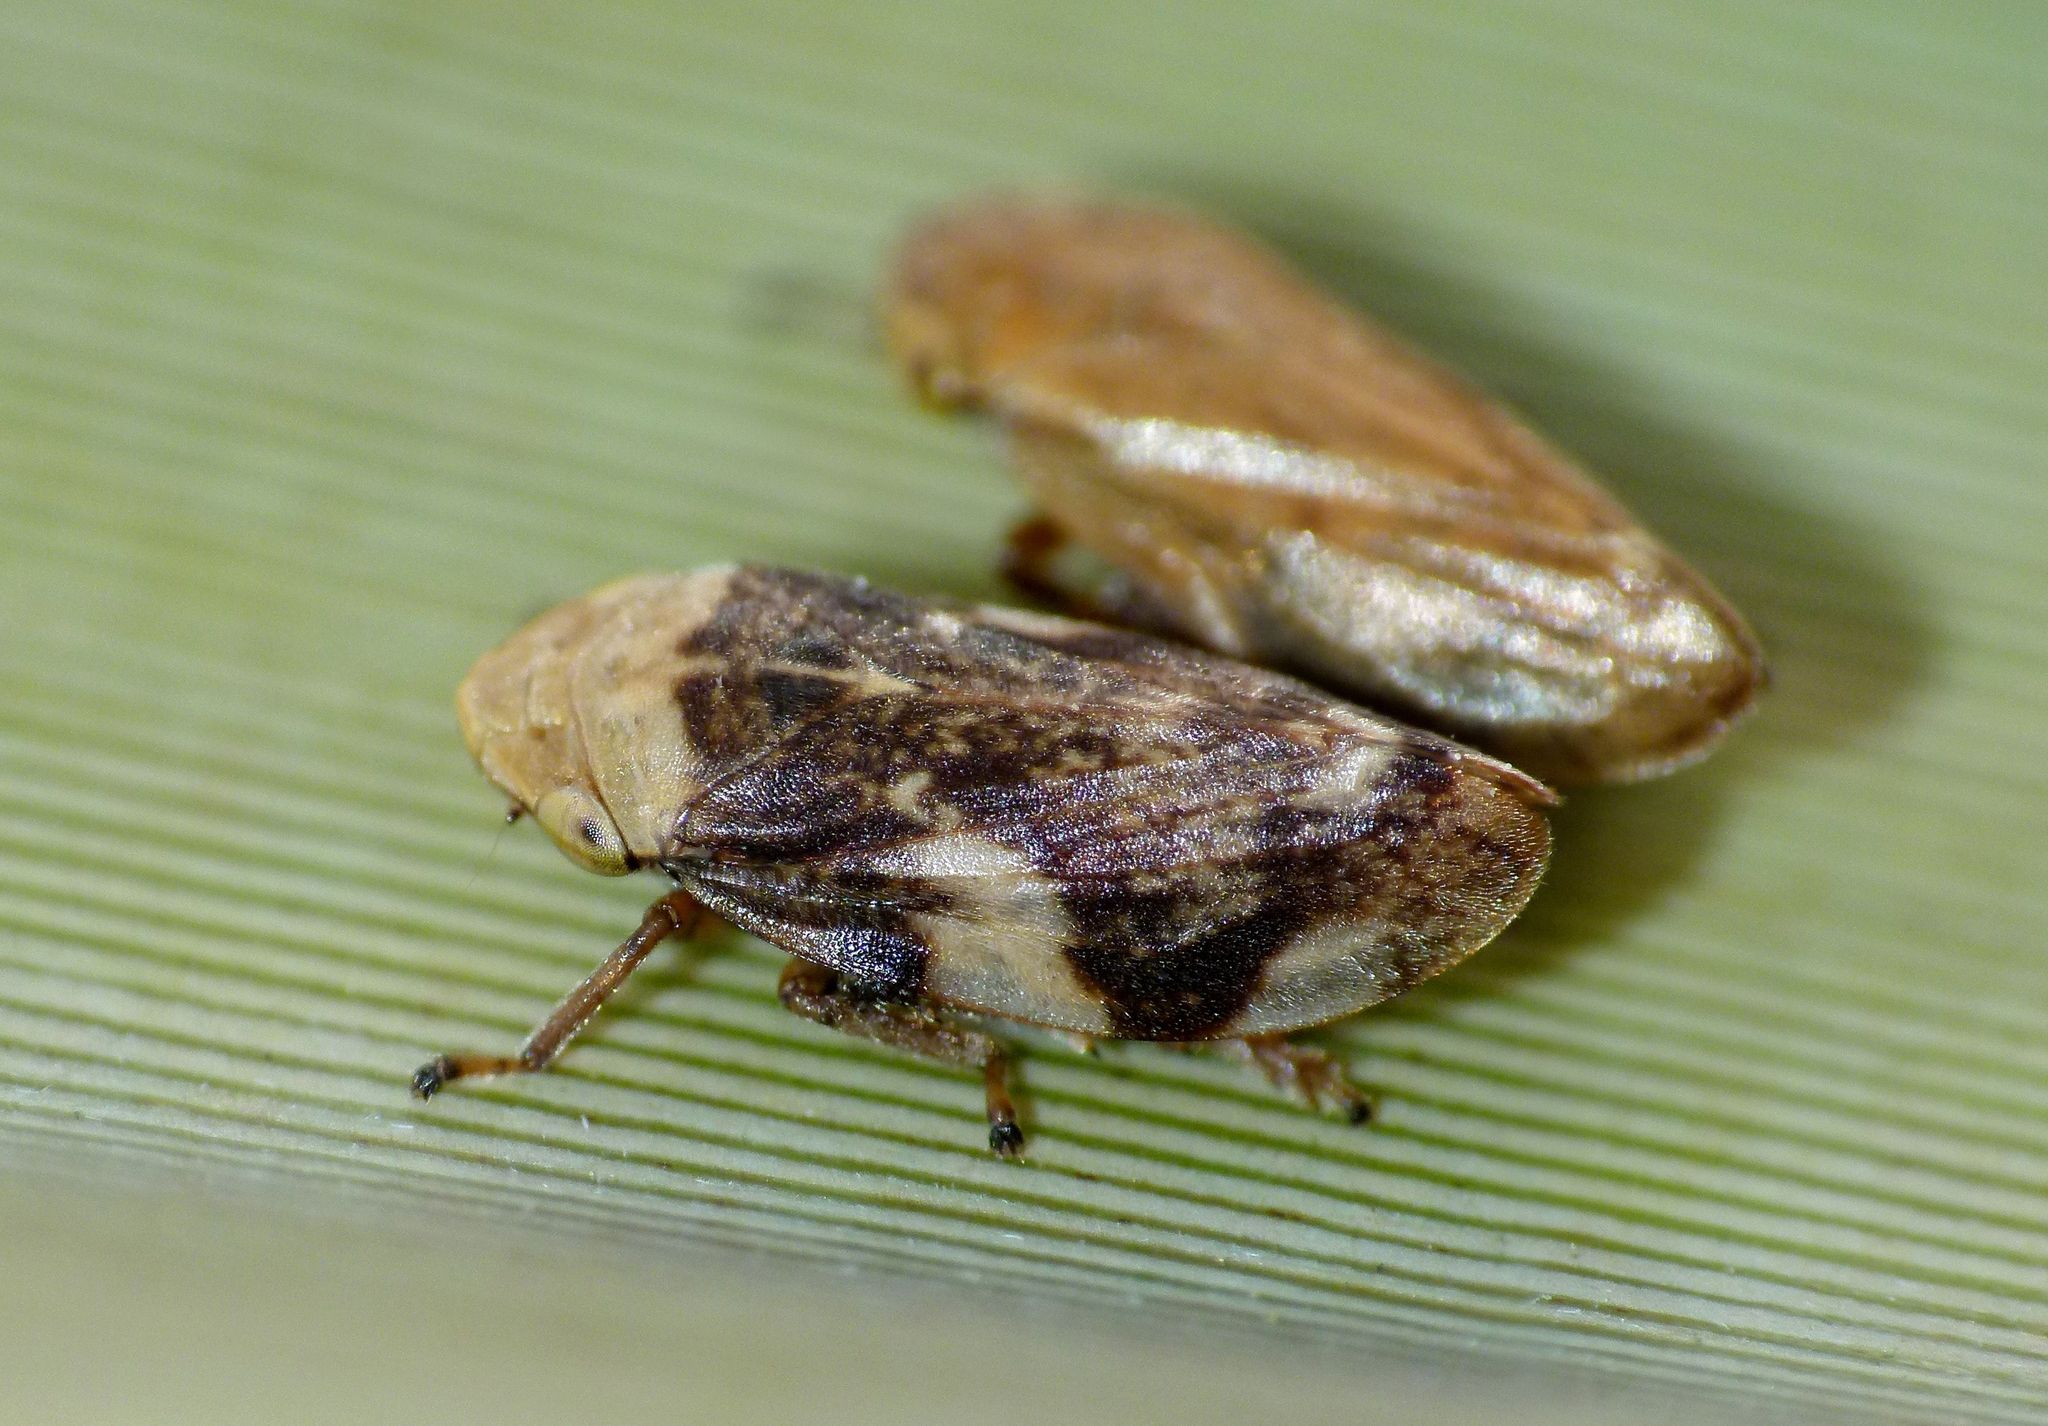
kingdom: Animalia
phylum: Arthropoda
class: Insecta
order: Hemiptera
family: Aphrophoridae
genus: Philaenus
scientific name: Philaenus spumarius
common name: Meadow spittlebug
